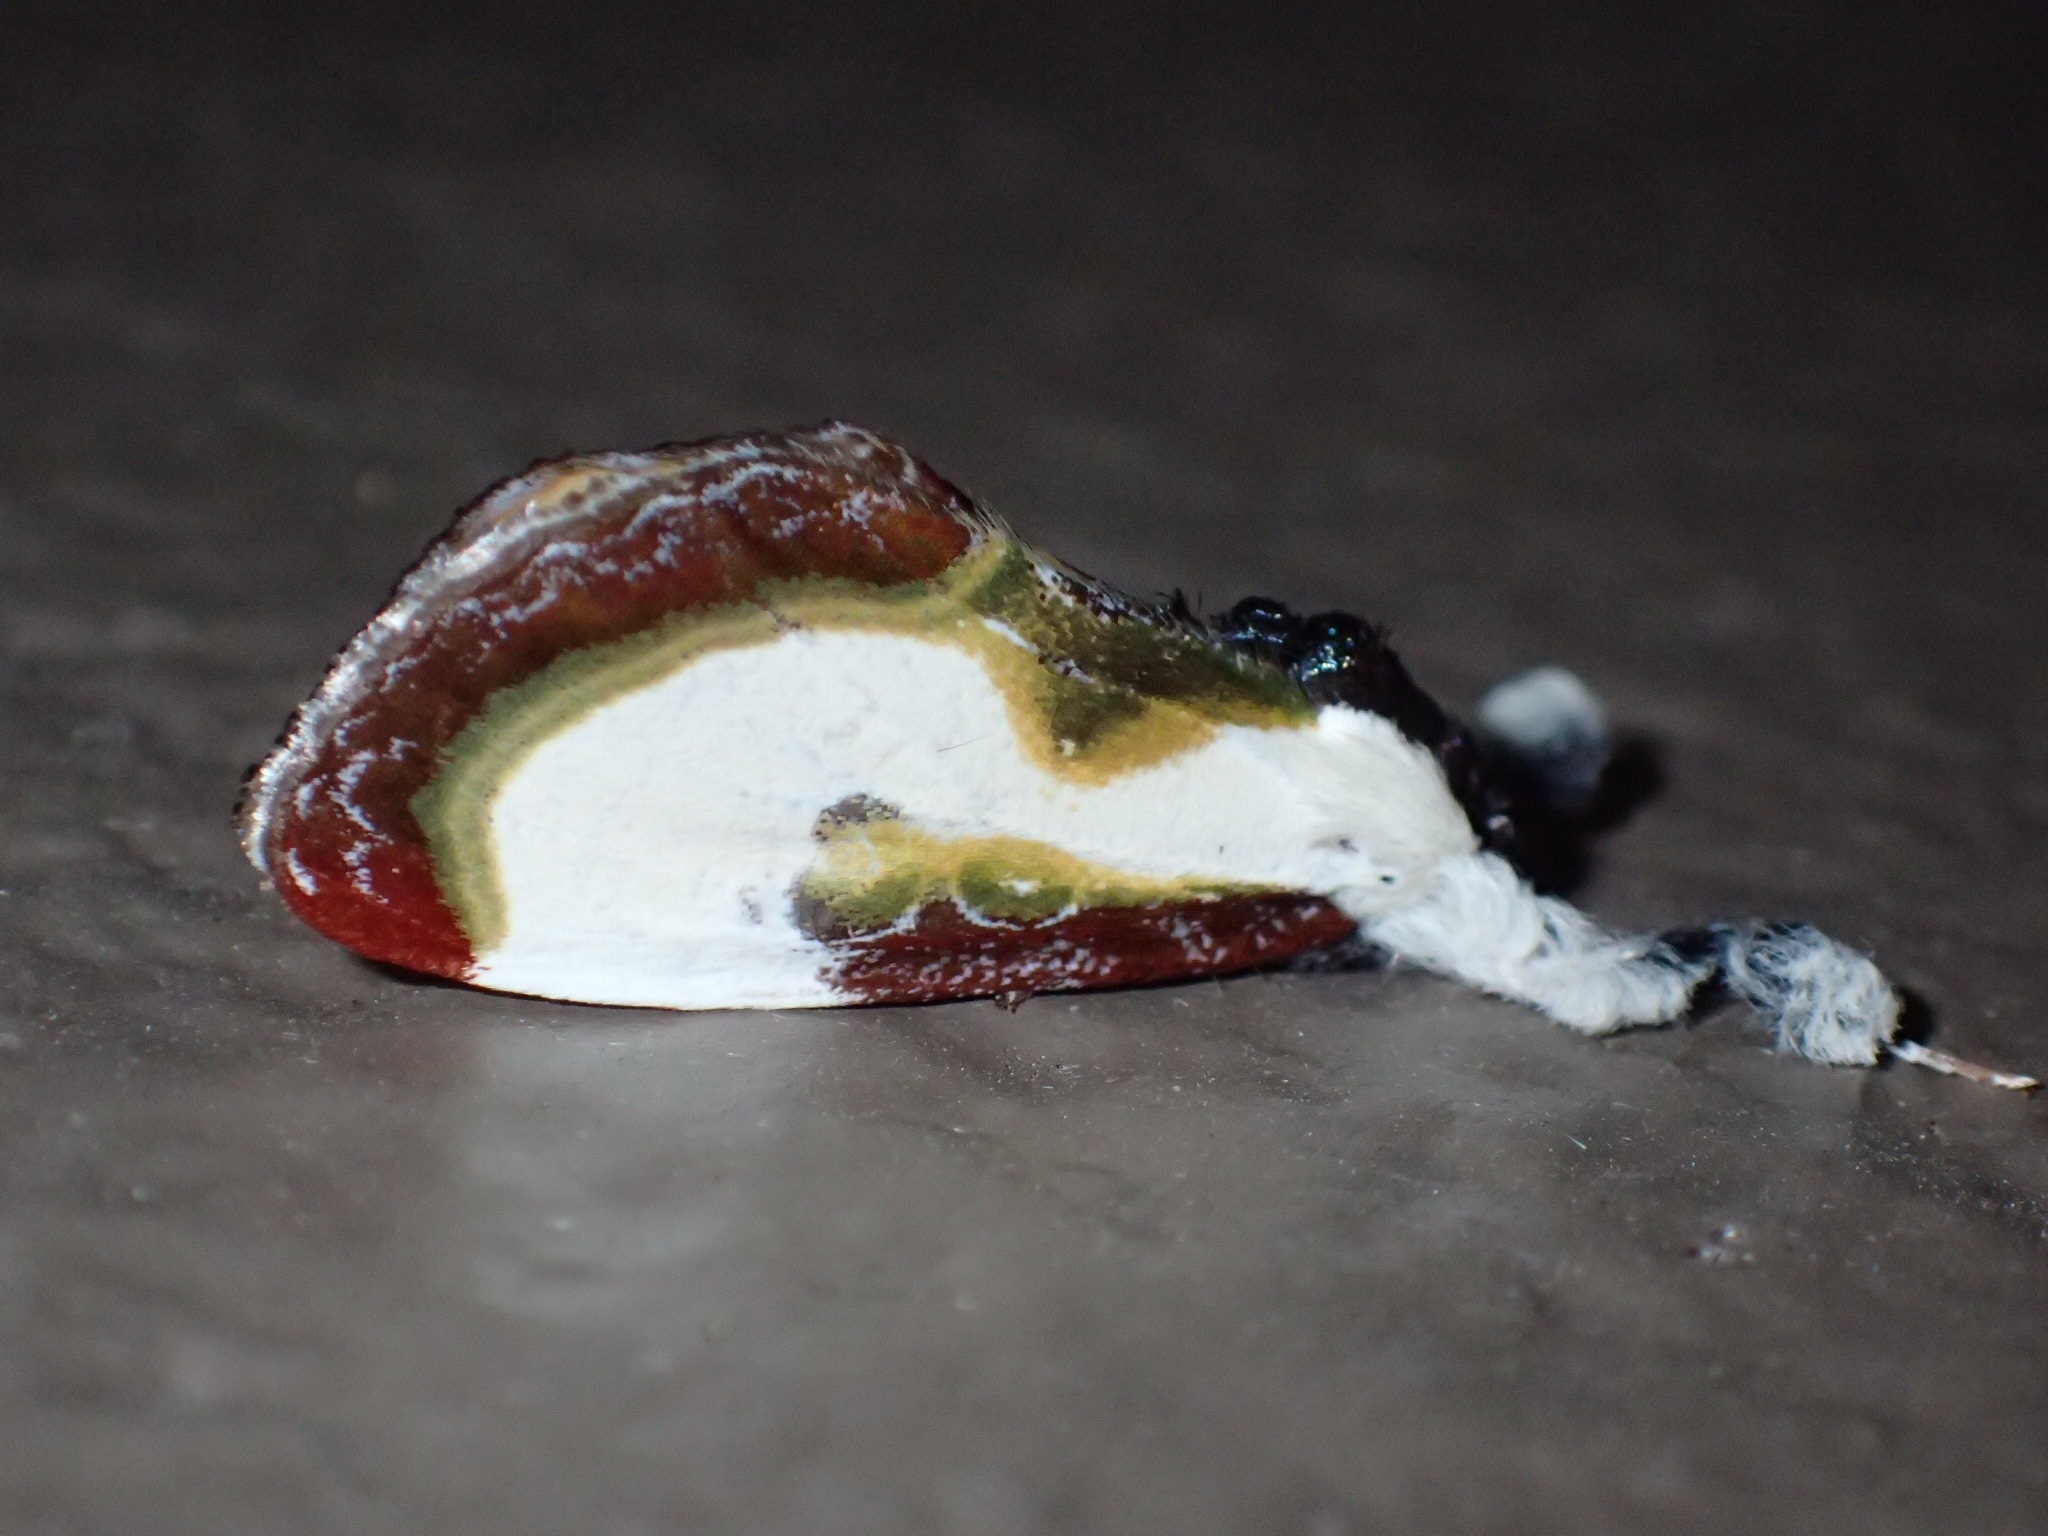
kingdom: Animalia
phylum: Arthropoda
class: Insecta
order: Lepidoptera
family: Noctuidae
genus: Eudryas
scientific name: Eudryas grata
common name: Beautiful wood-nymph
